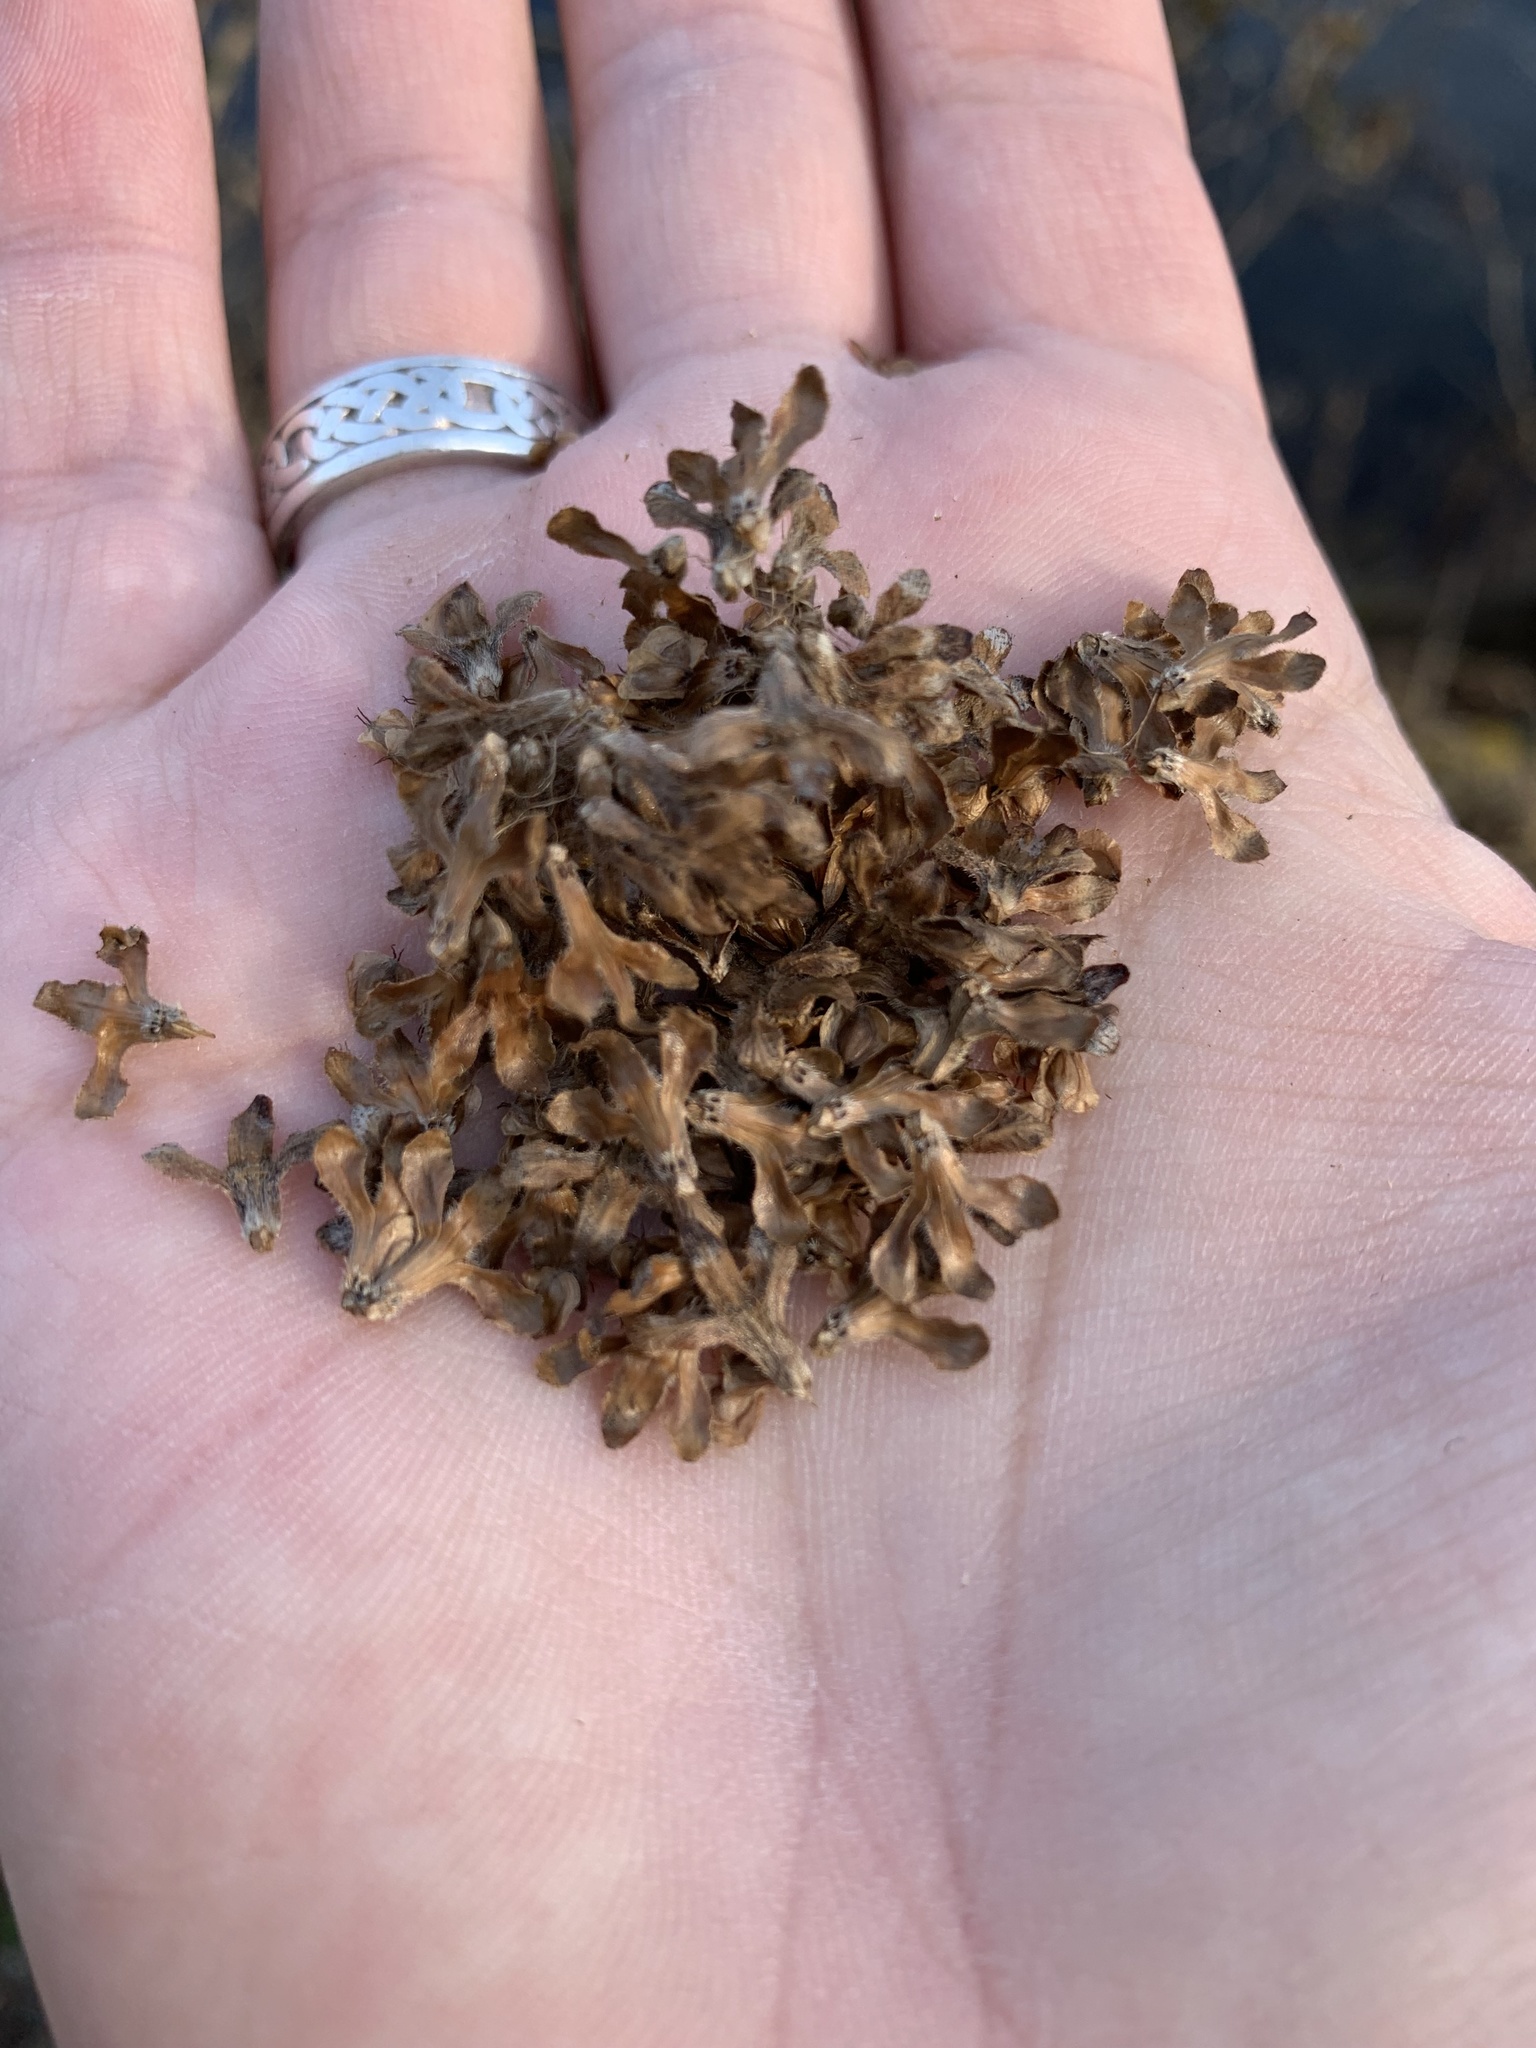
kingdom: Plantae
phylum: Tracheophyta
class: Magnoliopsida
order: Fagales
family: Betulaceae
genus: Betula
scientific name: Betula alleghaniensis
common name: Yellow birch
